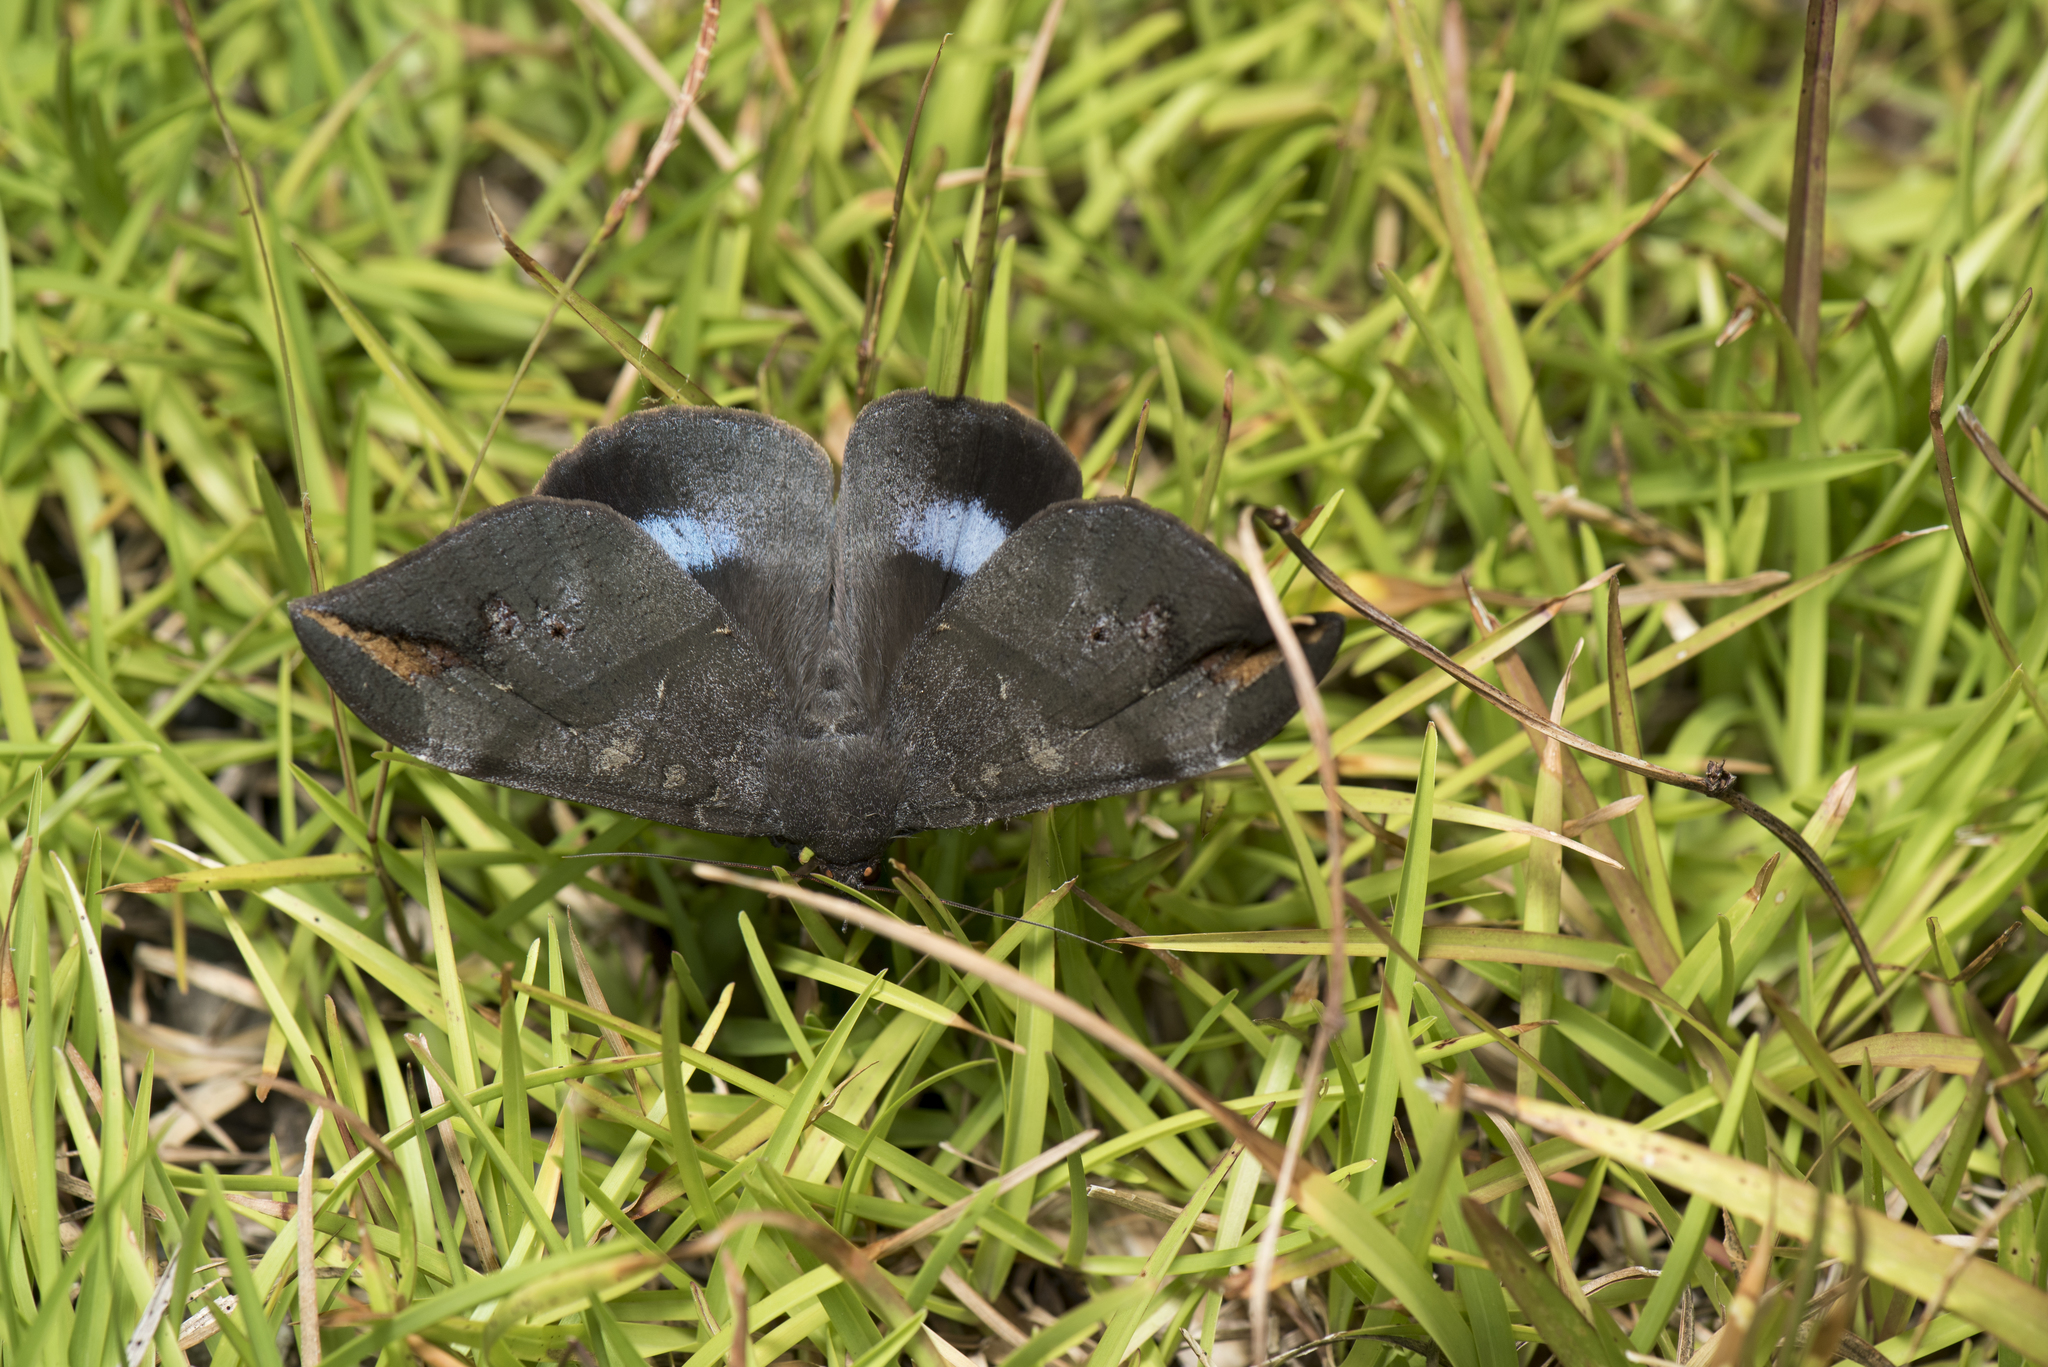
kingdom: Animalia
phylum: Arthropoda
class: Insecta
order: Lepidoptera
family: Erebidae
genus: Ischyja
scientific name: Ischyja ferrifracta
